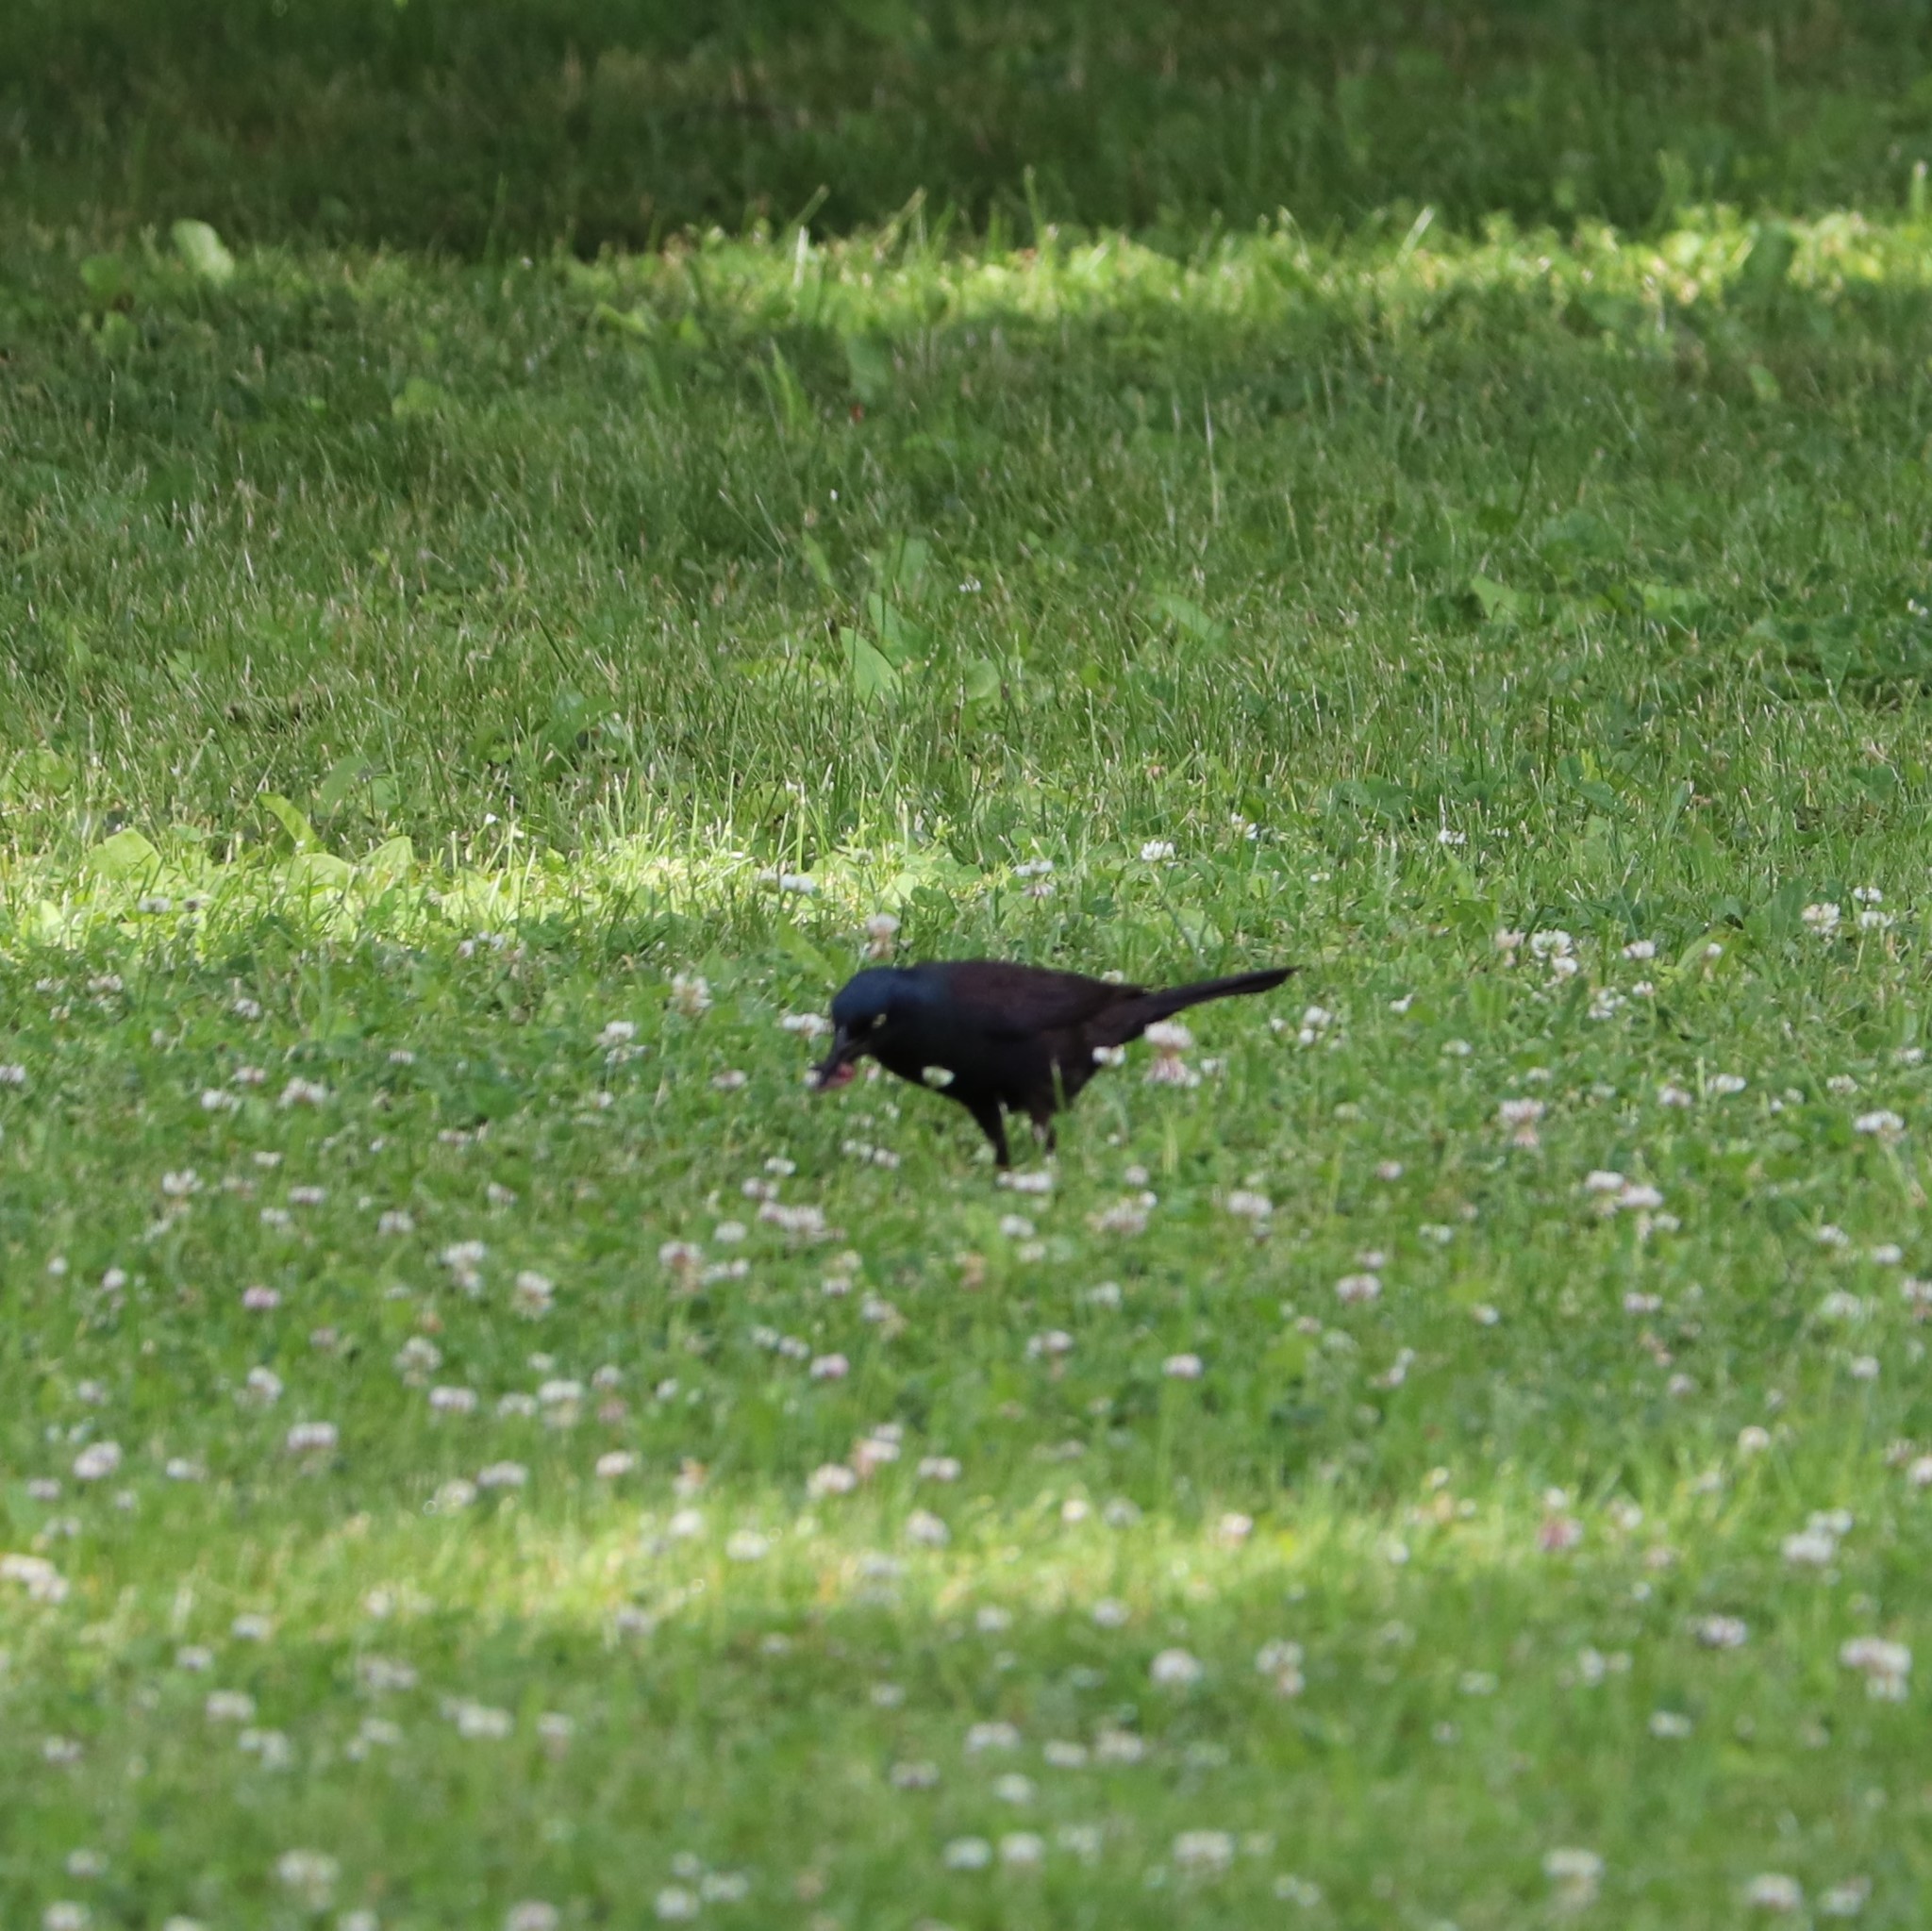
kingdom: Animalia
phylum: Chordata
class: Aves
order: Passeriformes
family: Icteridae
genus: Quiscalus
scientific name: Quiscalus quiscula
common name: Common grackle
